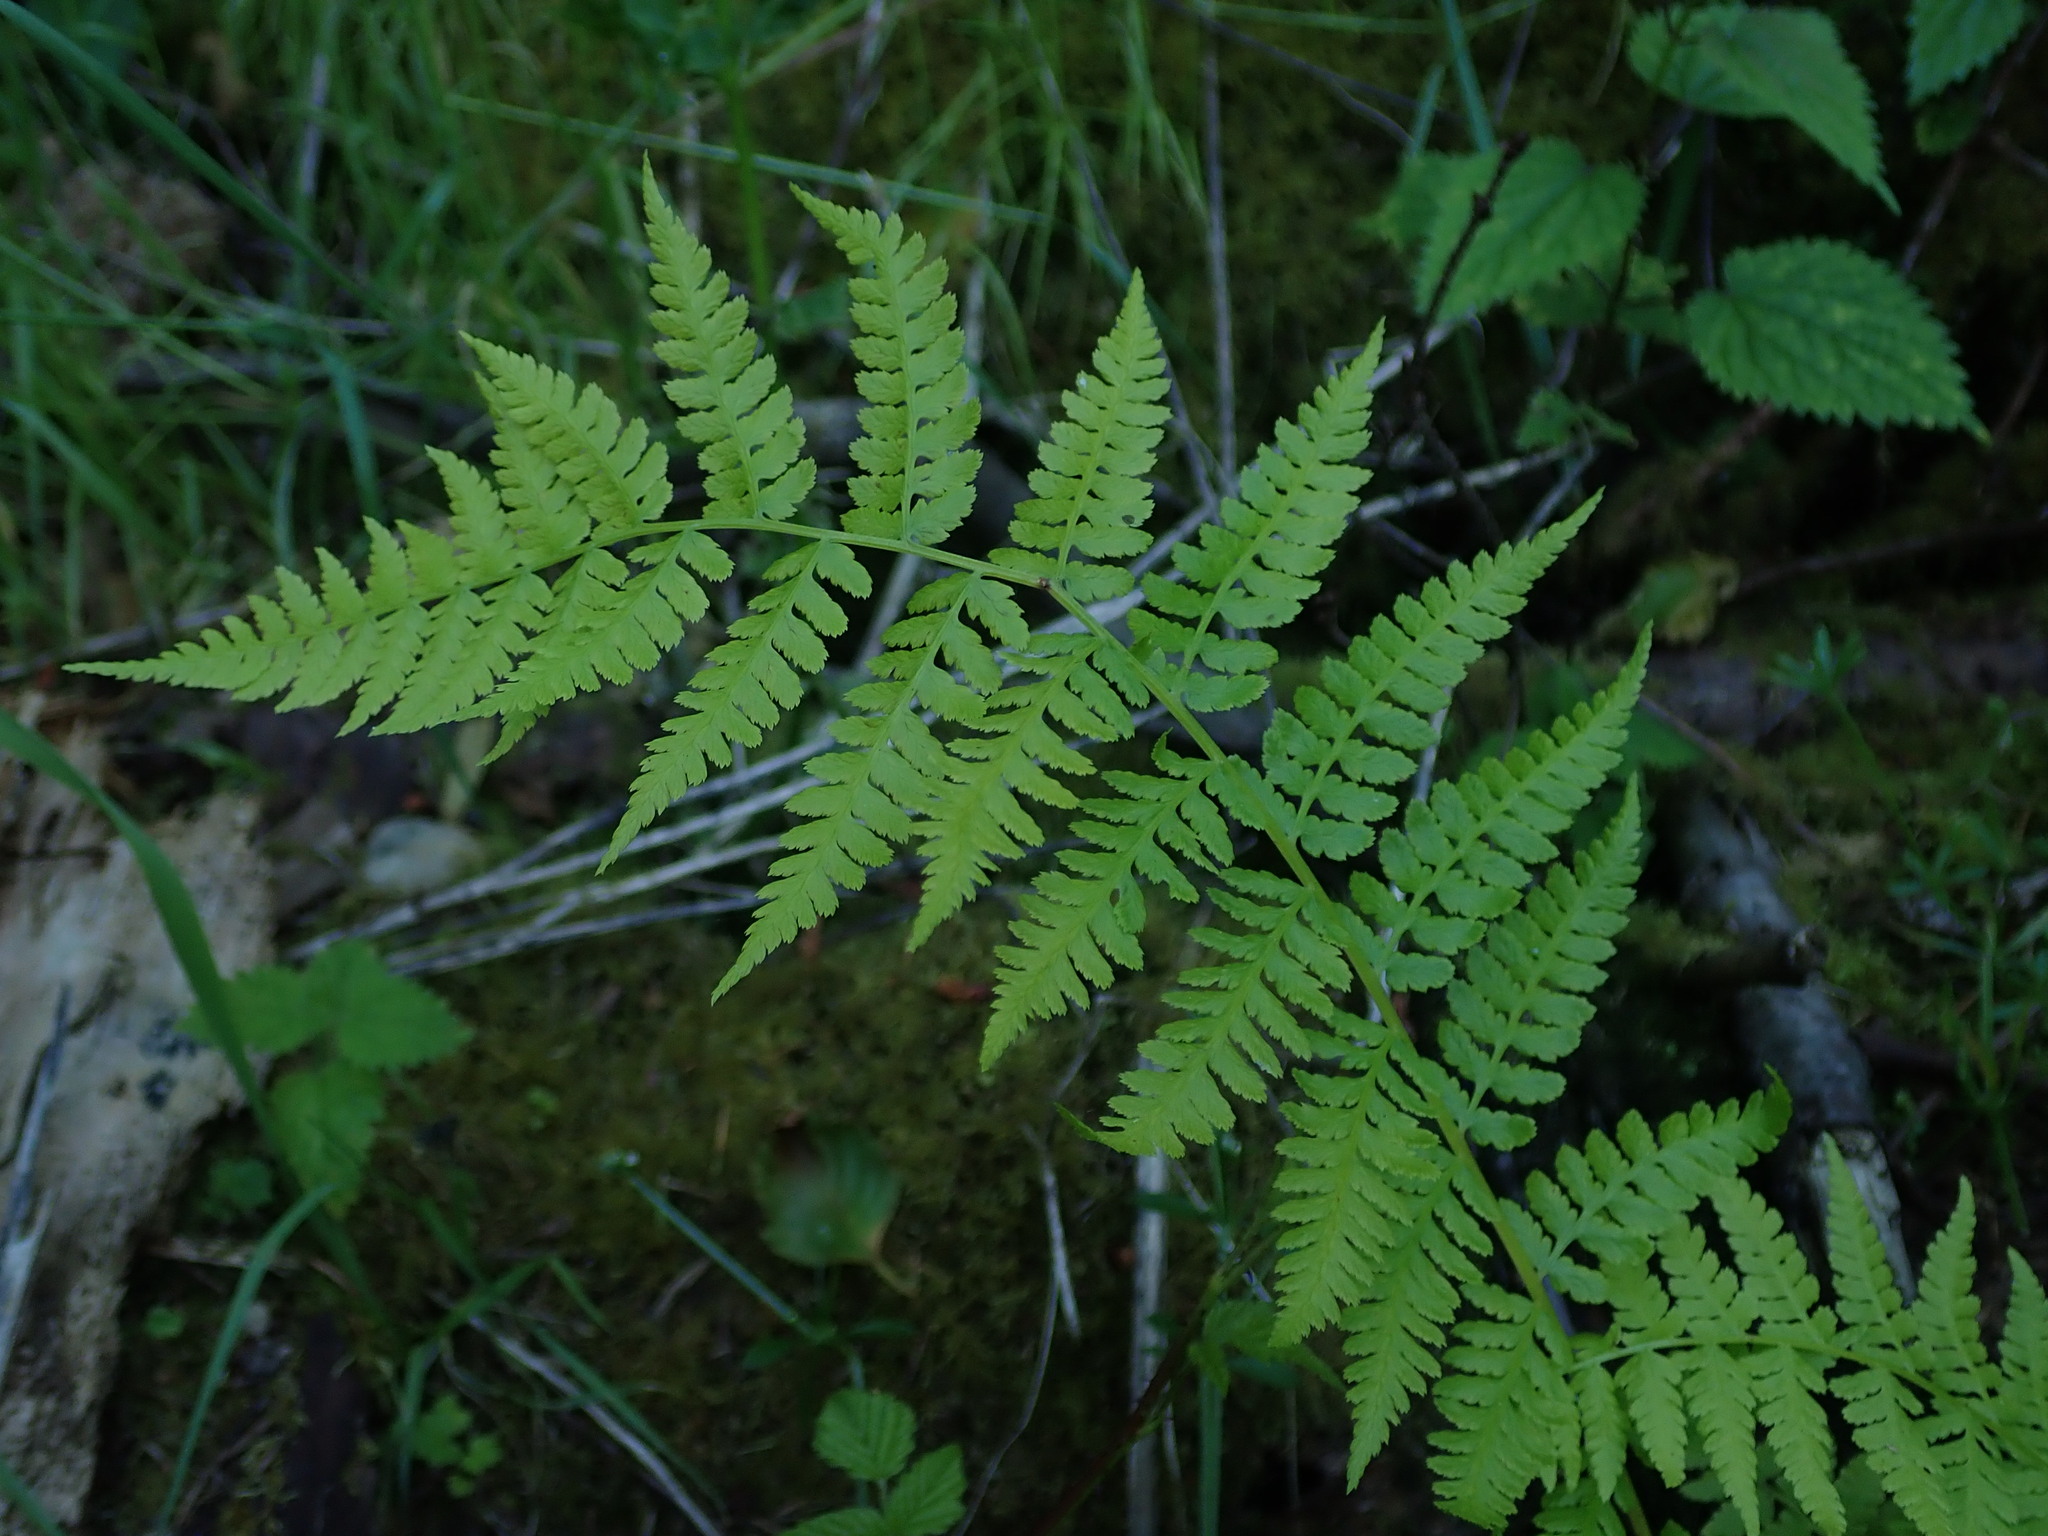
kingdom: Plantae
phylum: Tracheophyta
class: Polypodiopsida
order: Polypodiales
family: Athyriaceae
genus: Athyrium
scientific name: Athyrium cyclosorum
